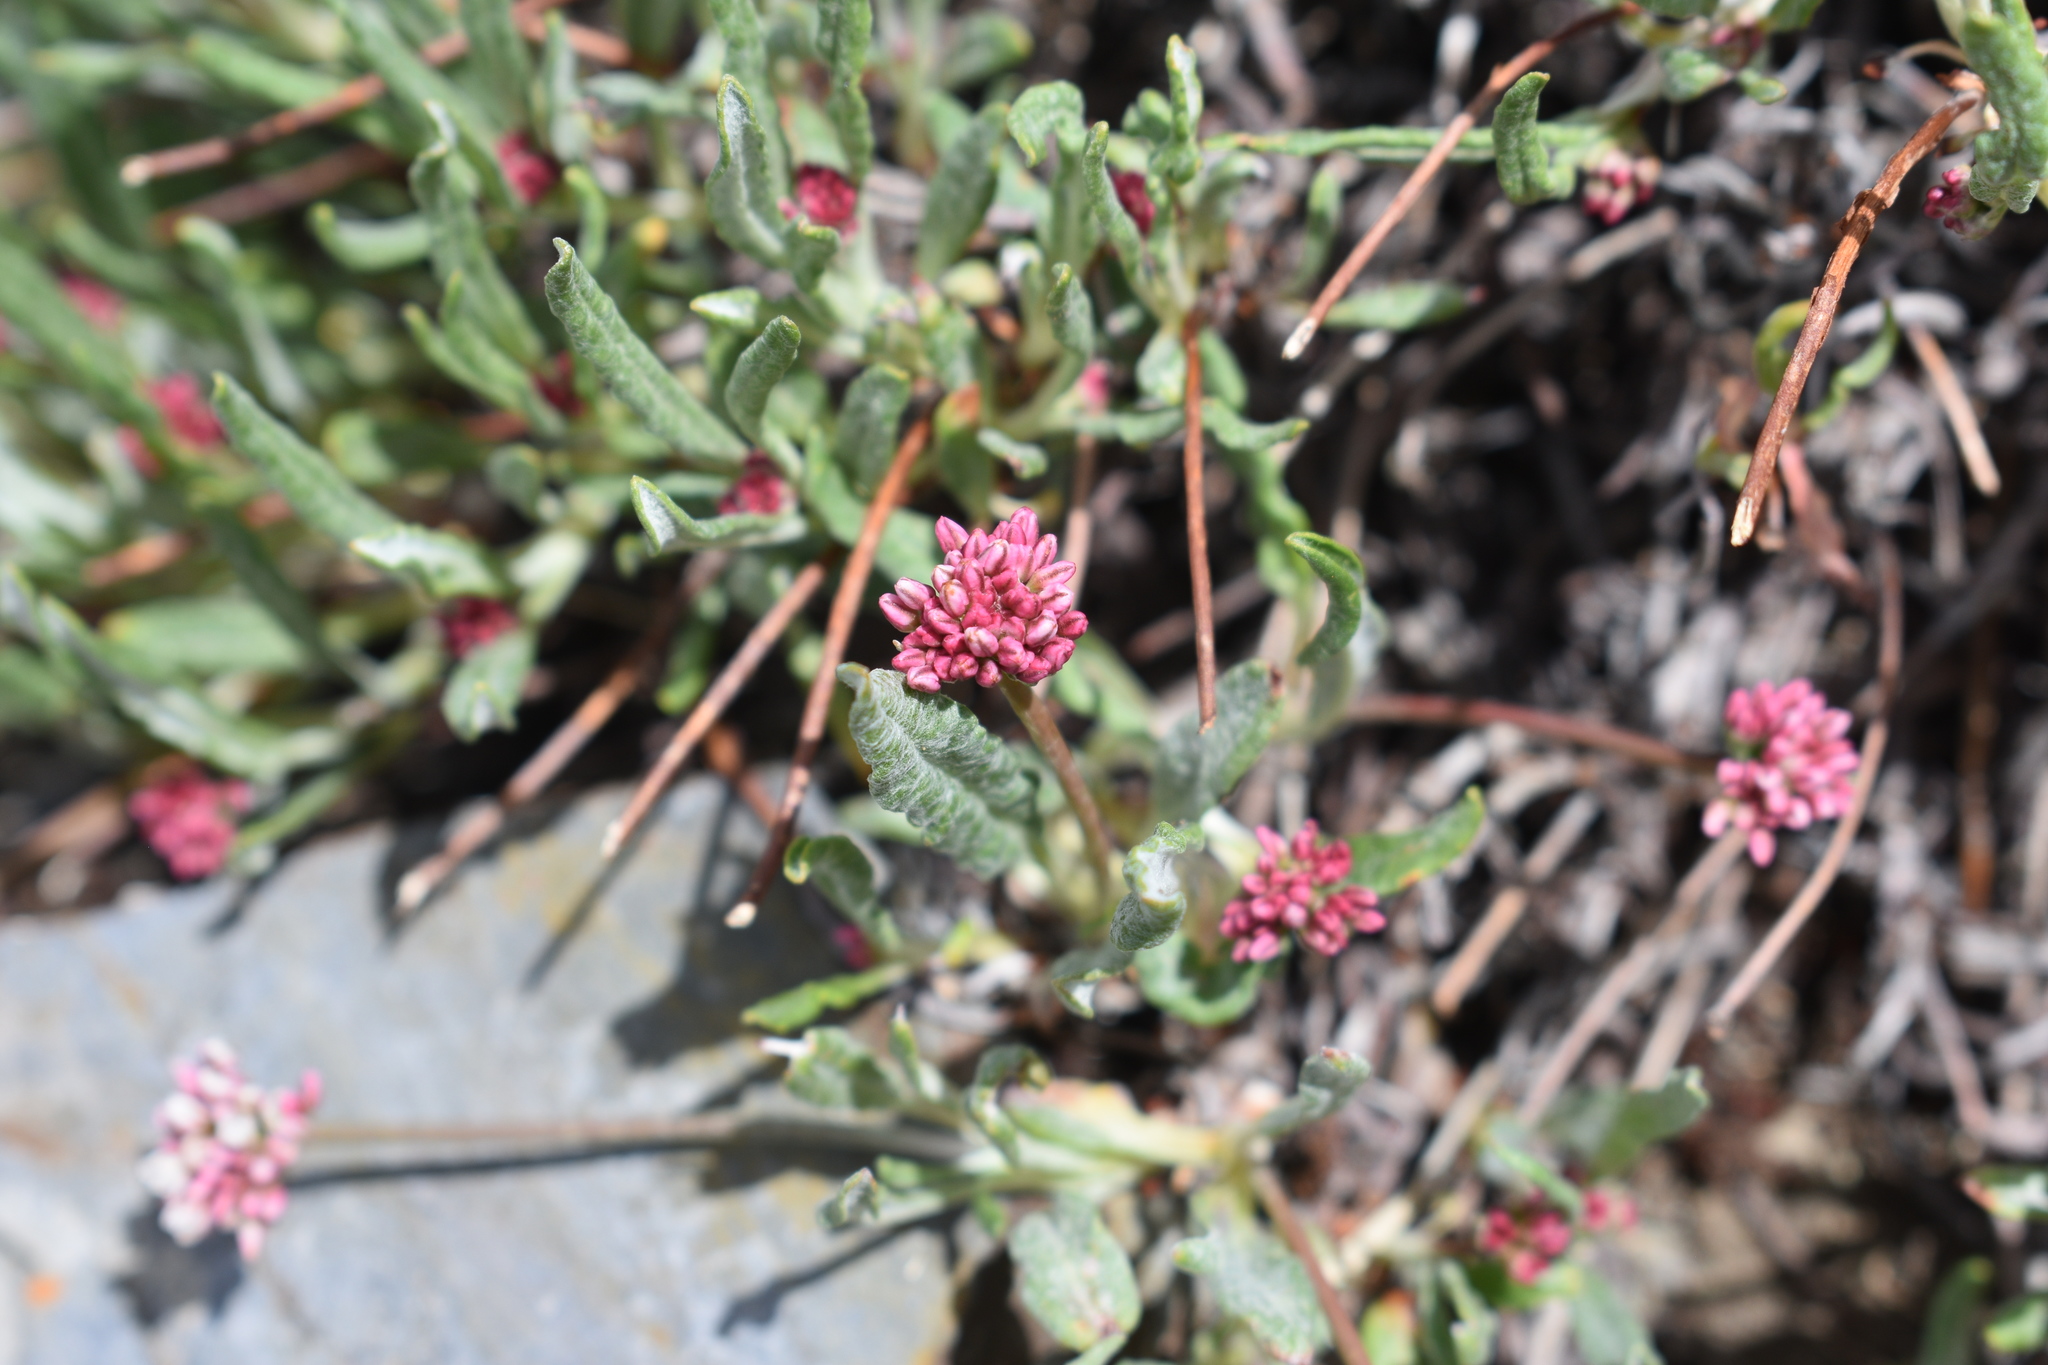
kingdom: Plantae
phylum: Tracheophyta
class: Magnoliopsida
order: Caryophyllales
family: Polygonaceae
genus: Eriogonum
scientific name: Eriogonum coloradense
